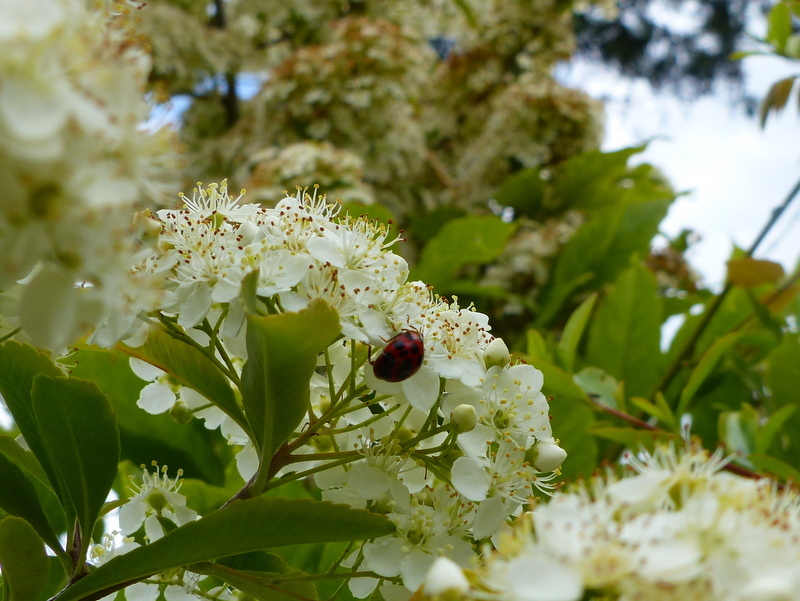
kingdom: Animalia
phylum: Arthropoda
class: Insecta
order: Coleoptera
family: Coccinellidae
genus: Harmonia
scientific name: Harmonia axyridis
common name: Harlequin ladybird
